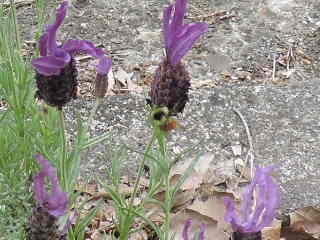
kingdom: Animalia
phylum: Arthropoda
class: Insecta
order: Hymenoptera
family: Apidae
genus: Bombus
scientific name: Bombus huntii
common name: Hunt bumble bee
